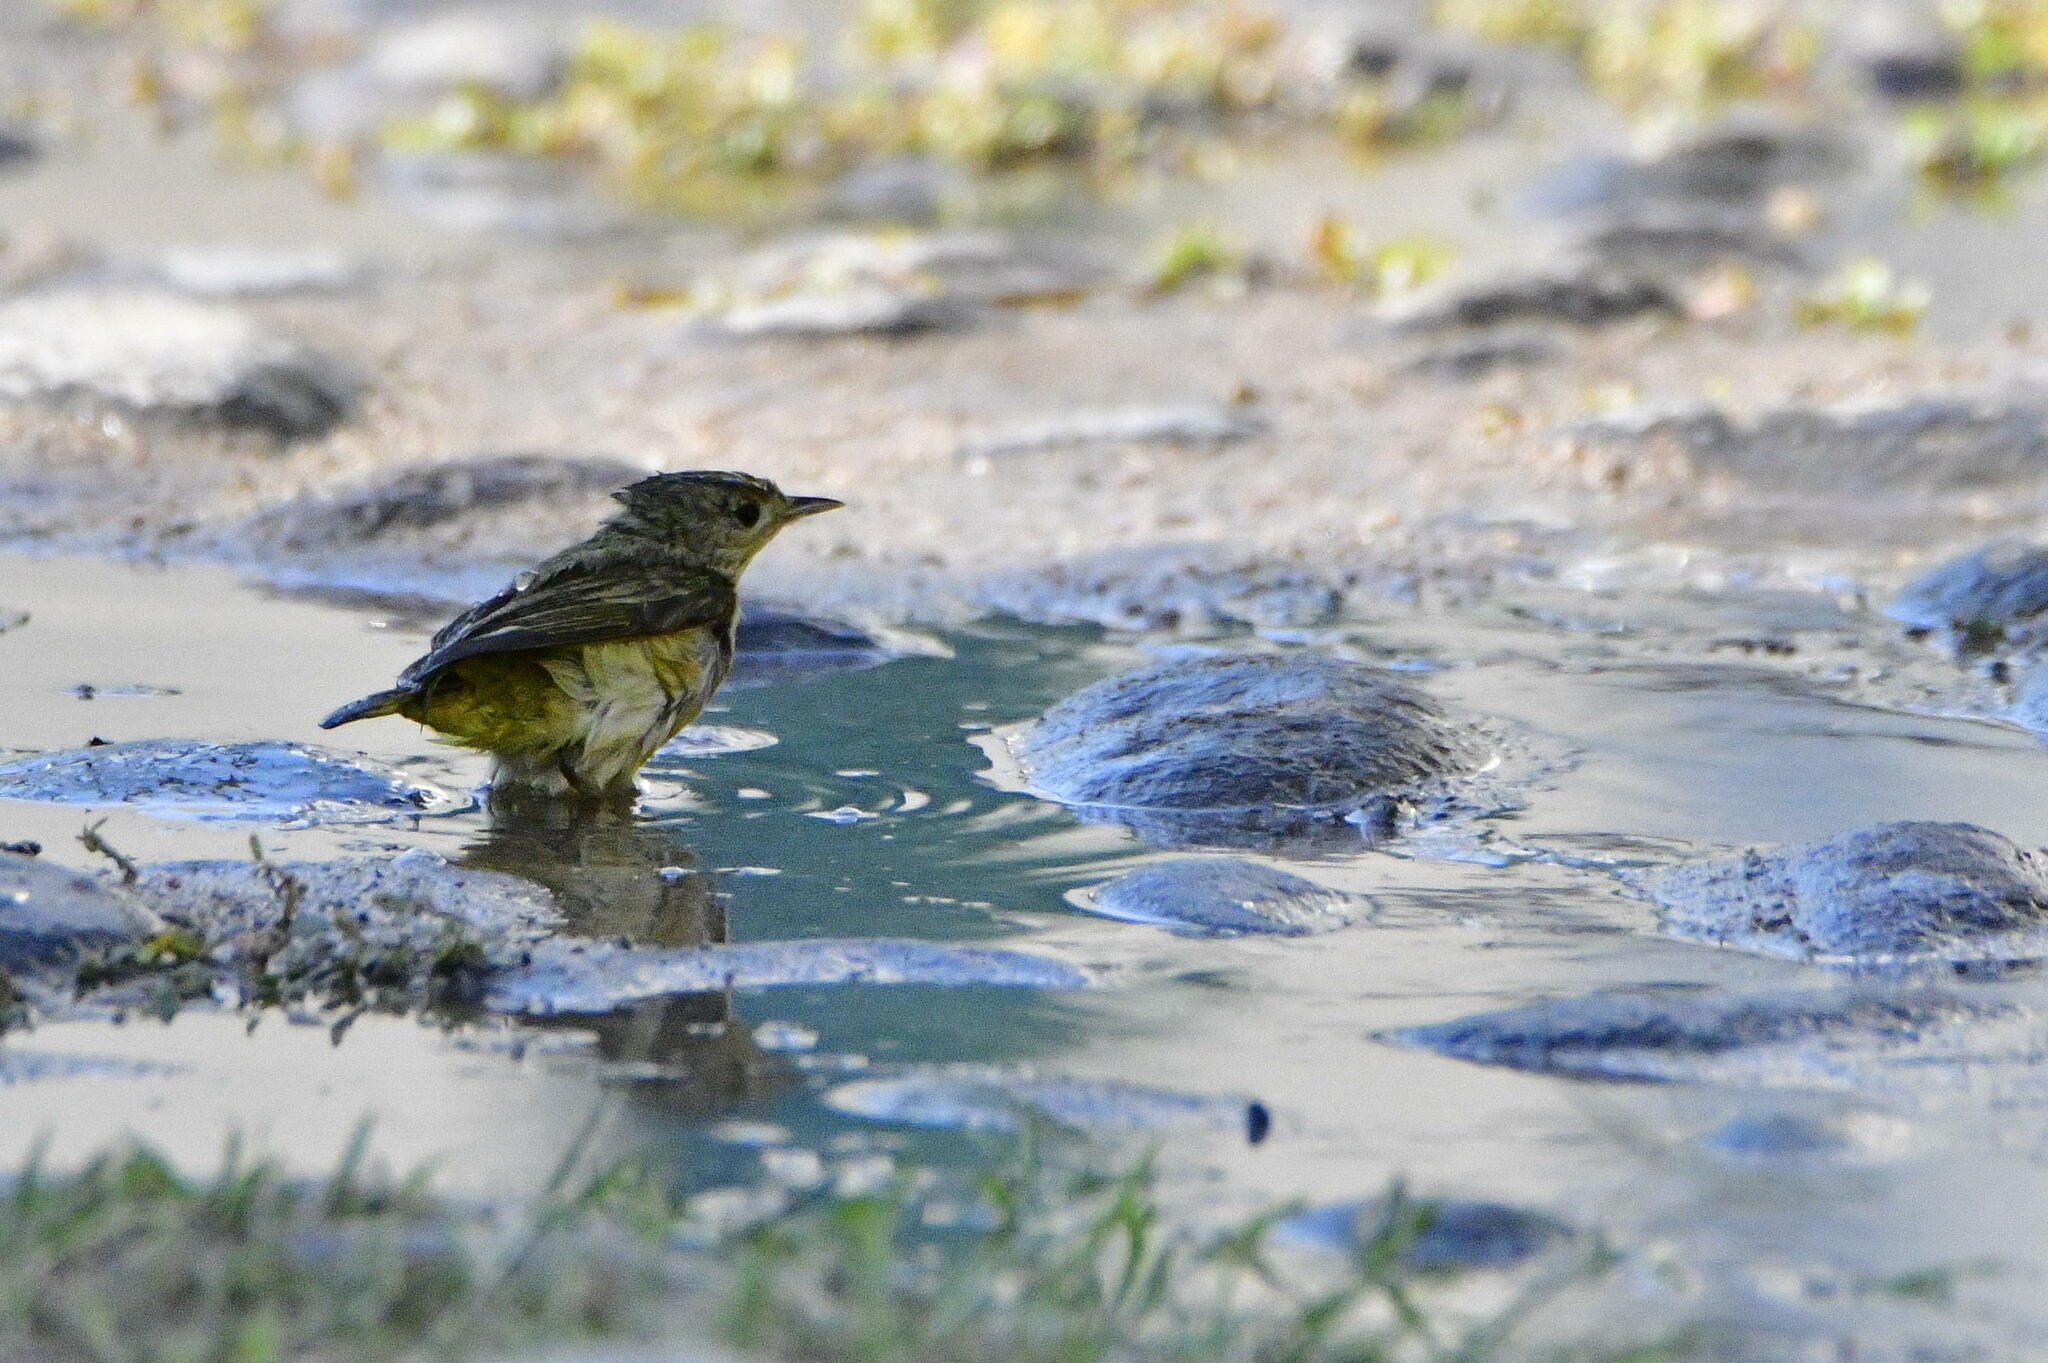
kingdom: Animalia
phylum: Chordata
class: Aves
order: Passeriformes
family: Parulidae
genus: Setophaga
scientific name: Setophaga petechia
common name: Yellow warbler
